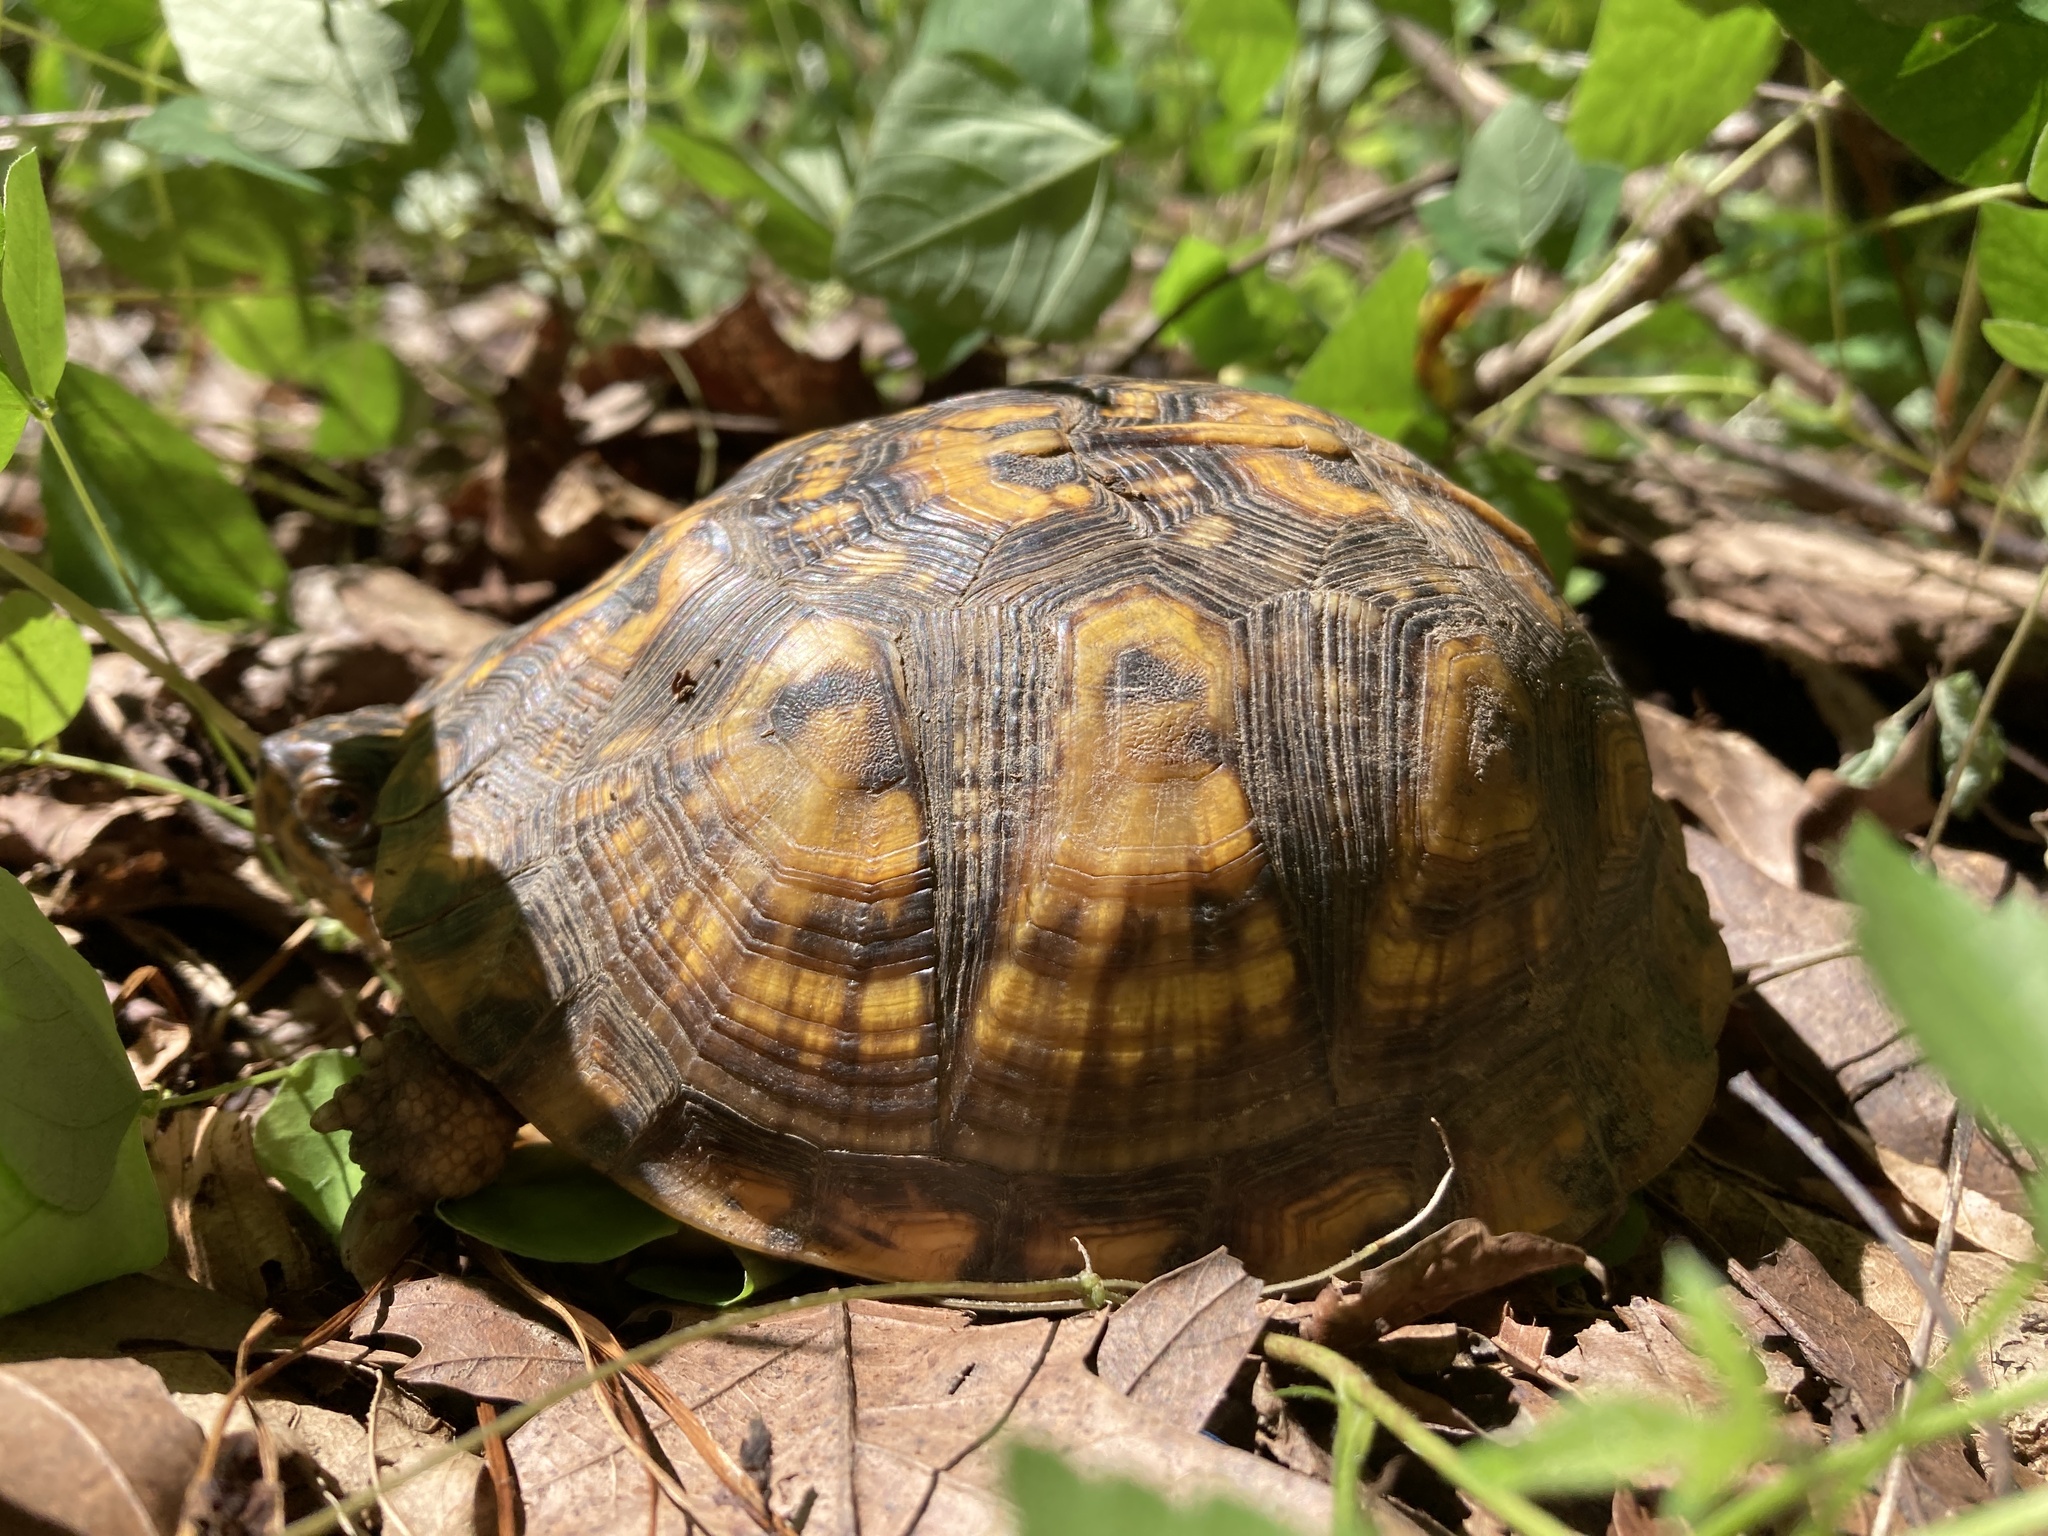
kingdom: Animalia
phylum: Chordata
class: Testudines
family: Emydidae
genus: Terrapene
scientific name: Terrapene carolina
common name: Common box turtle
